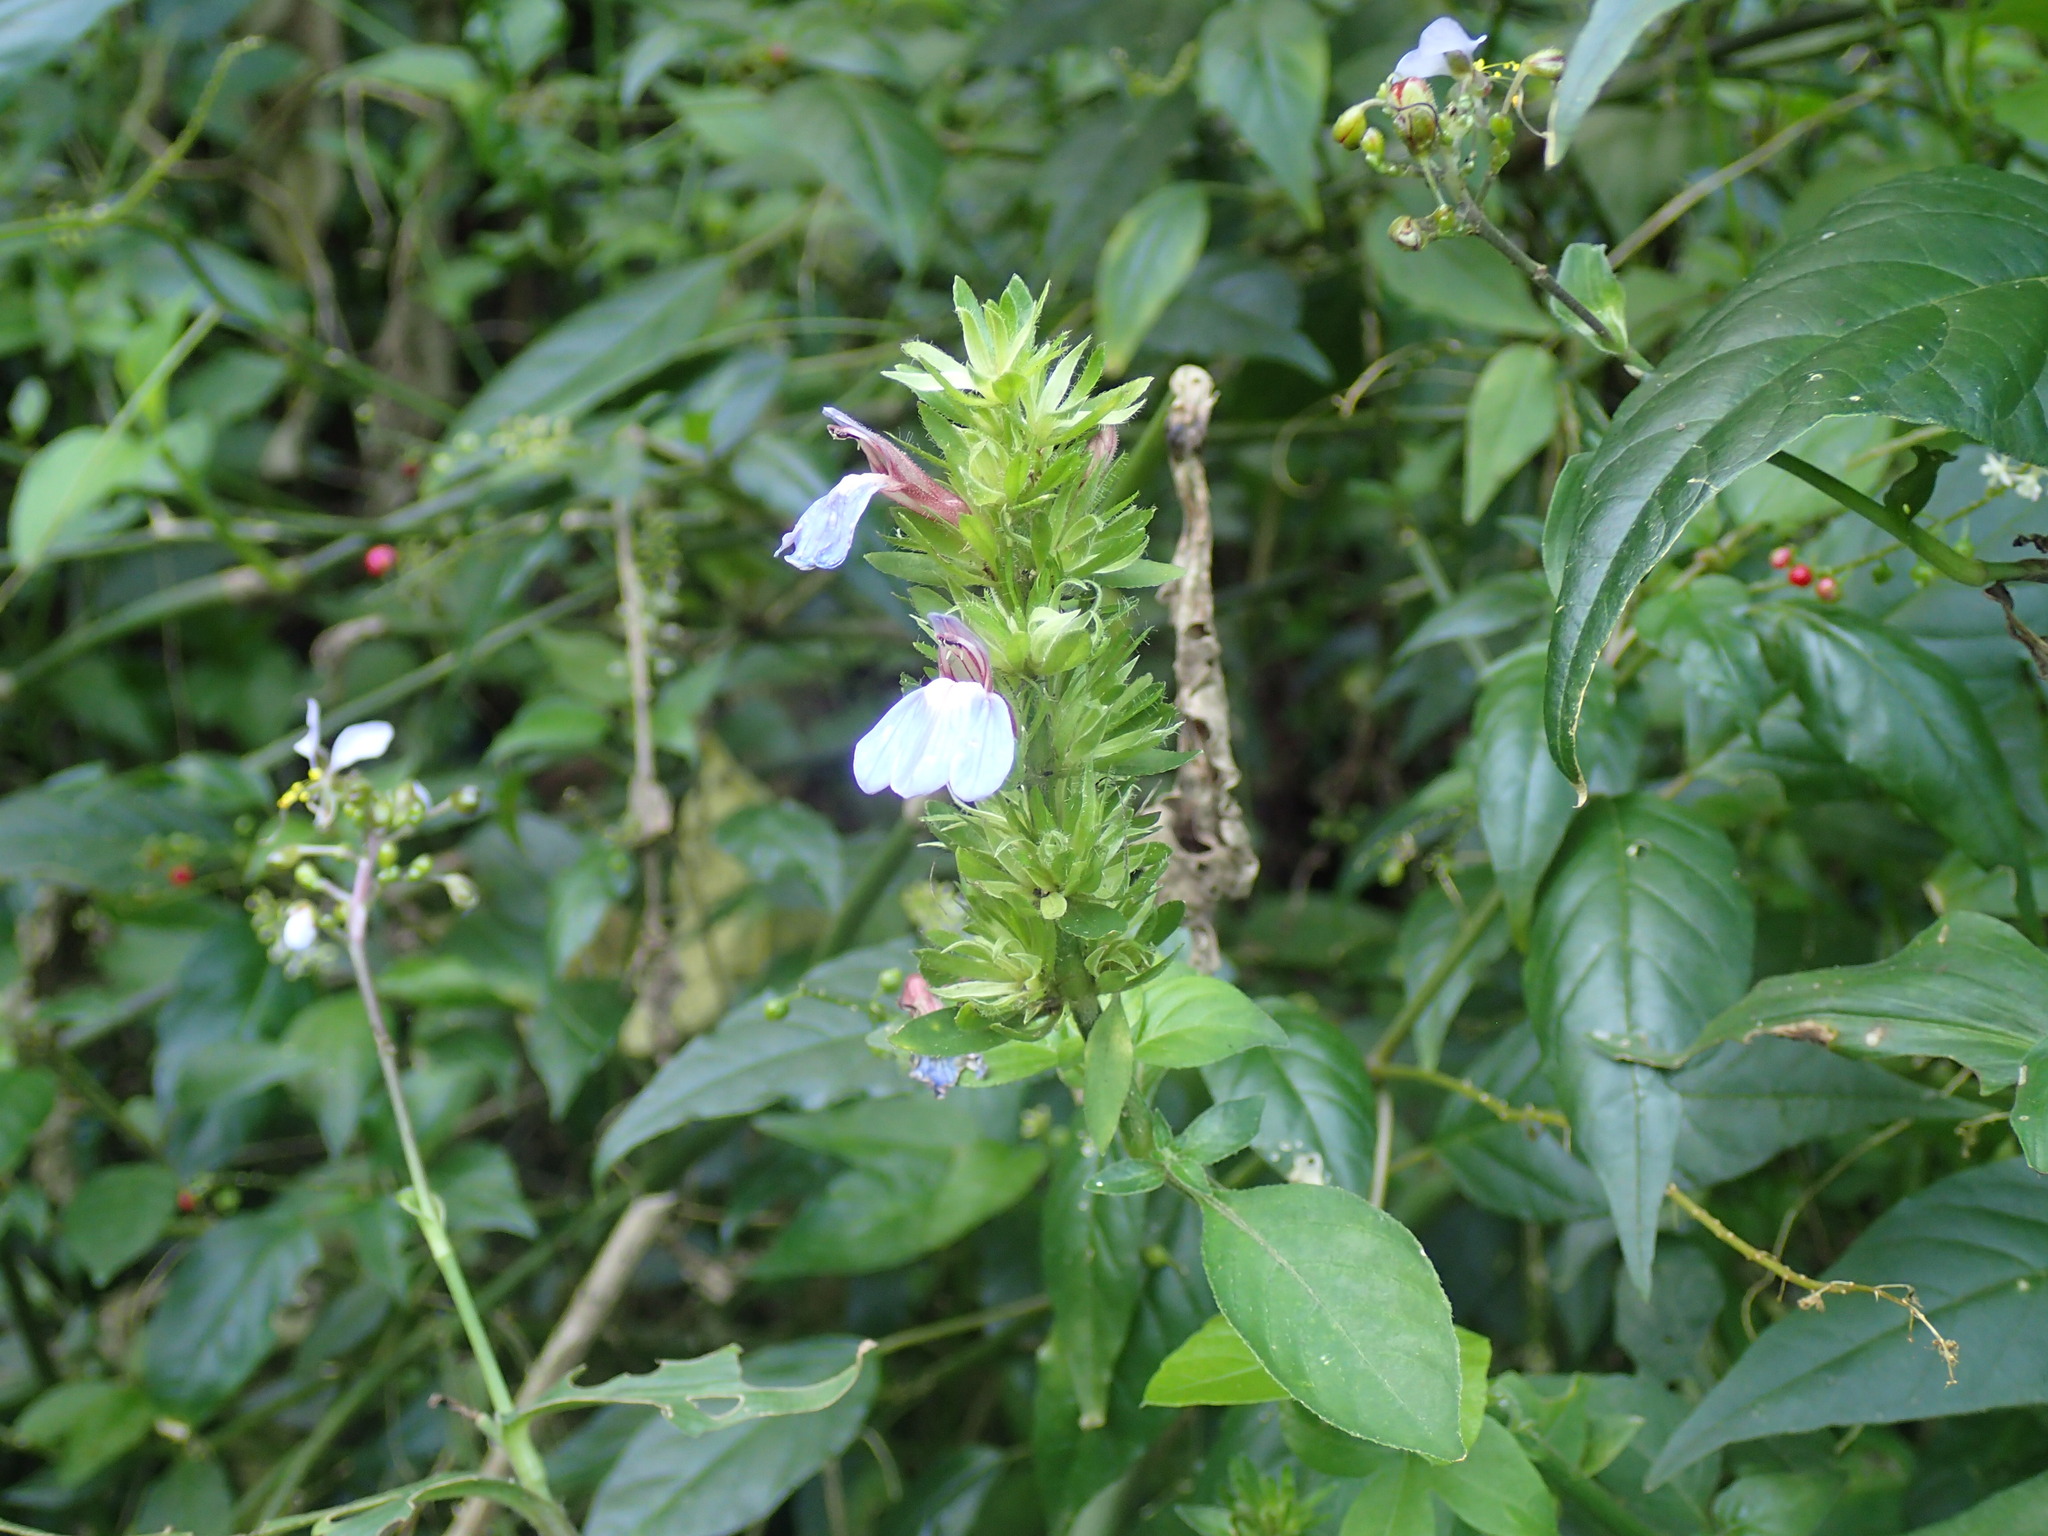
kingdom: Plantae
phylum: Tracheophyta
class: Magnoliopsida
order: Lamiales
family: Acanthaceae
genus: Justicia
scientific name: Justicia petiolaris
